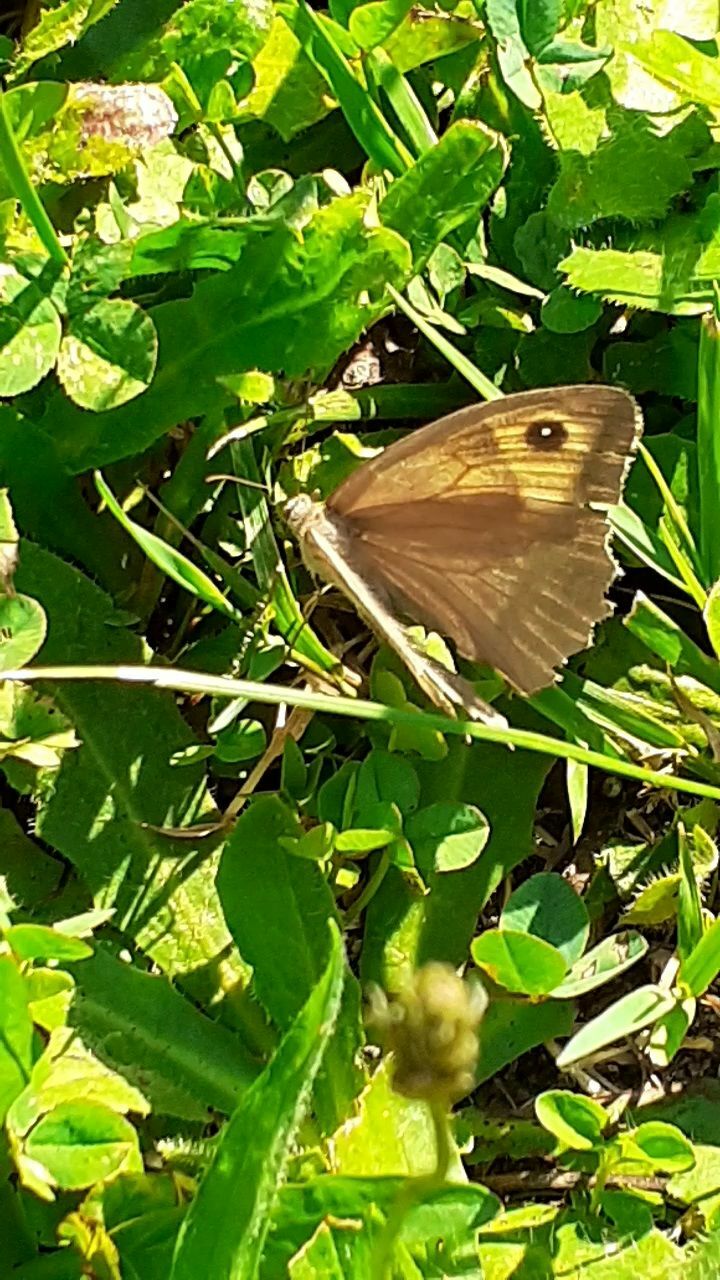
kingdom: Animalia
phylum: Arthropoda
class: Insecta
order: Lepidoptera
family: Nymphalidae
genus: Maniola
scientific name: Maniola jurtina
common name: Meadow brown
